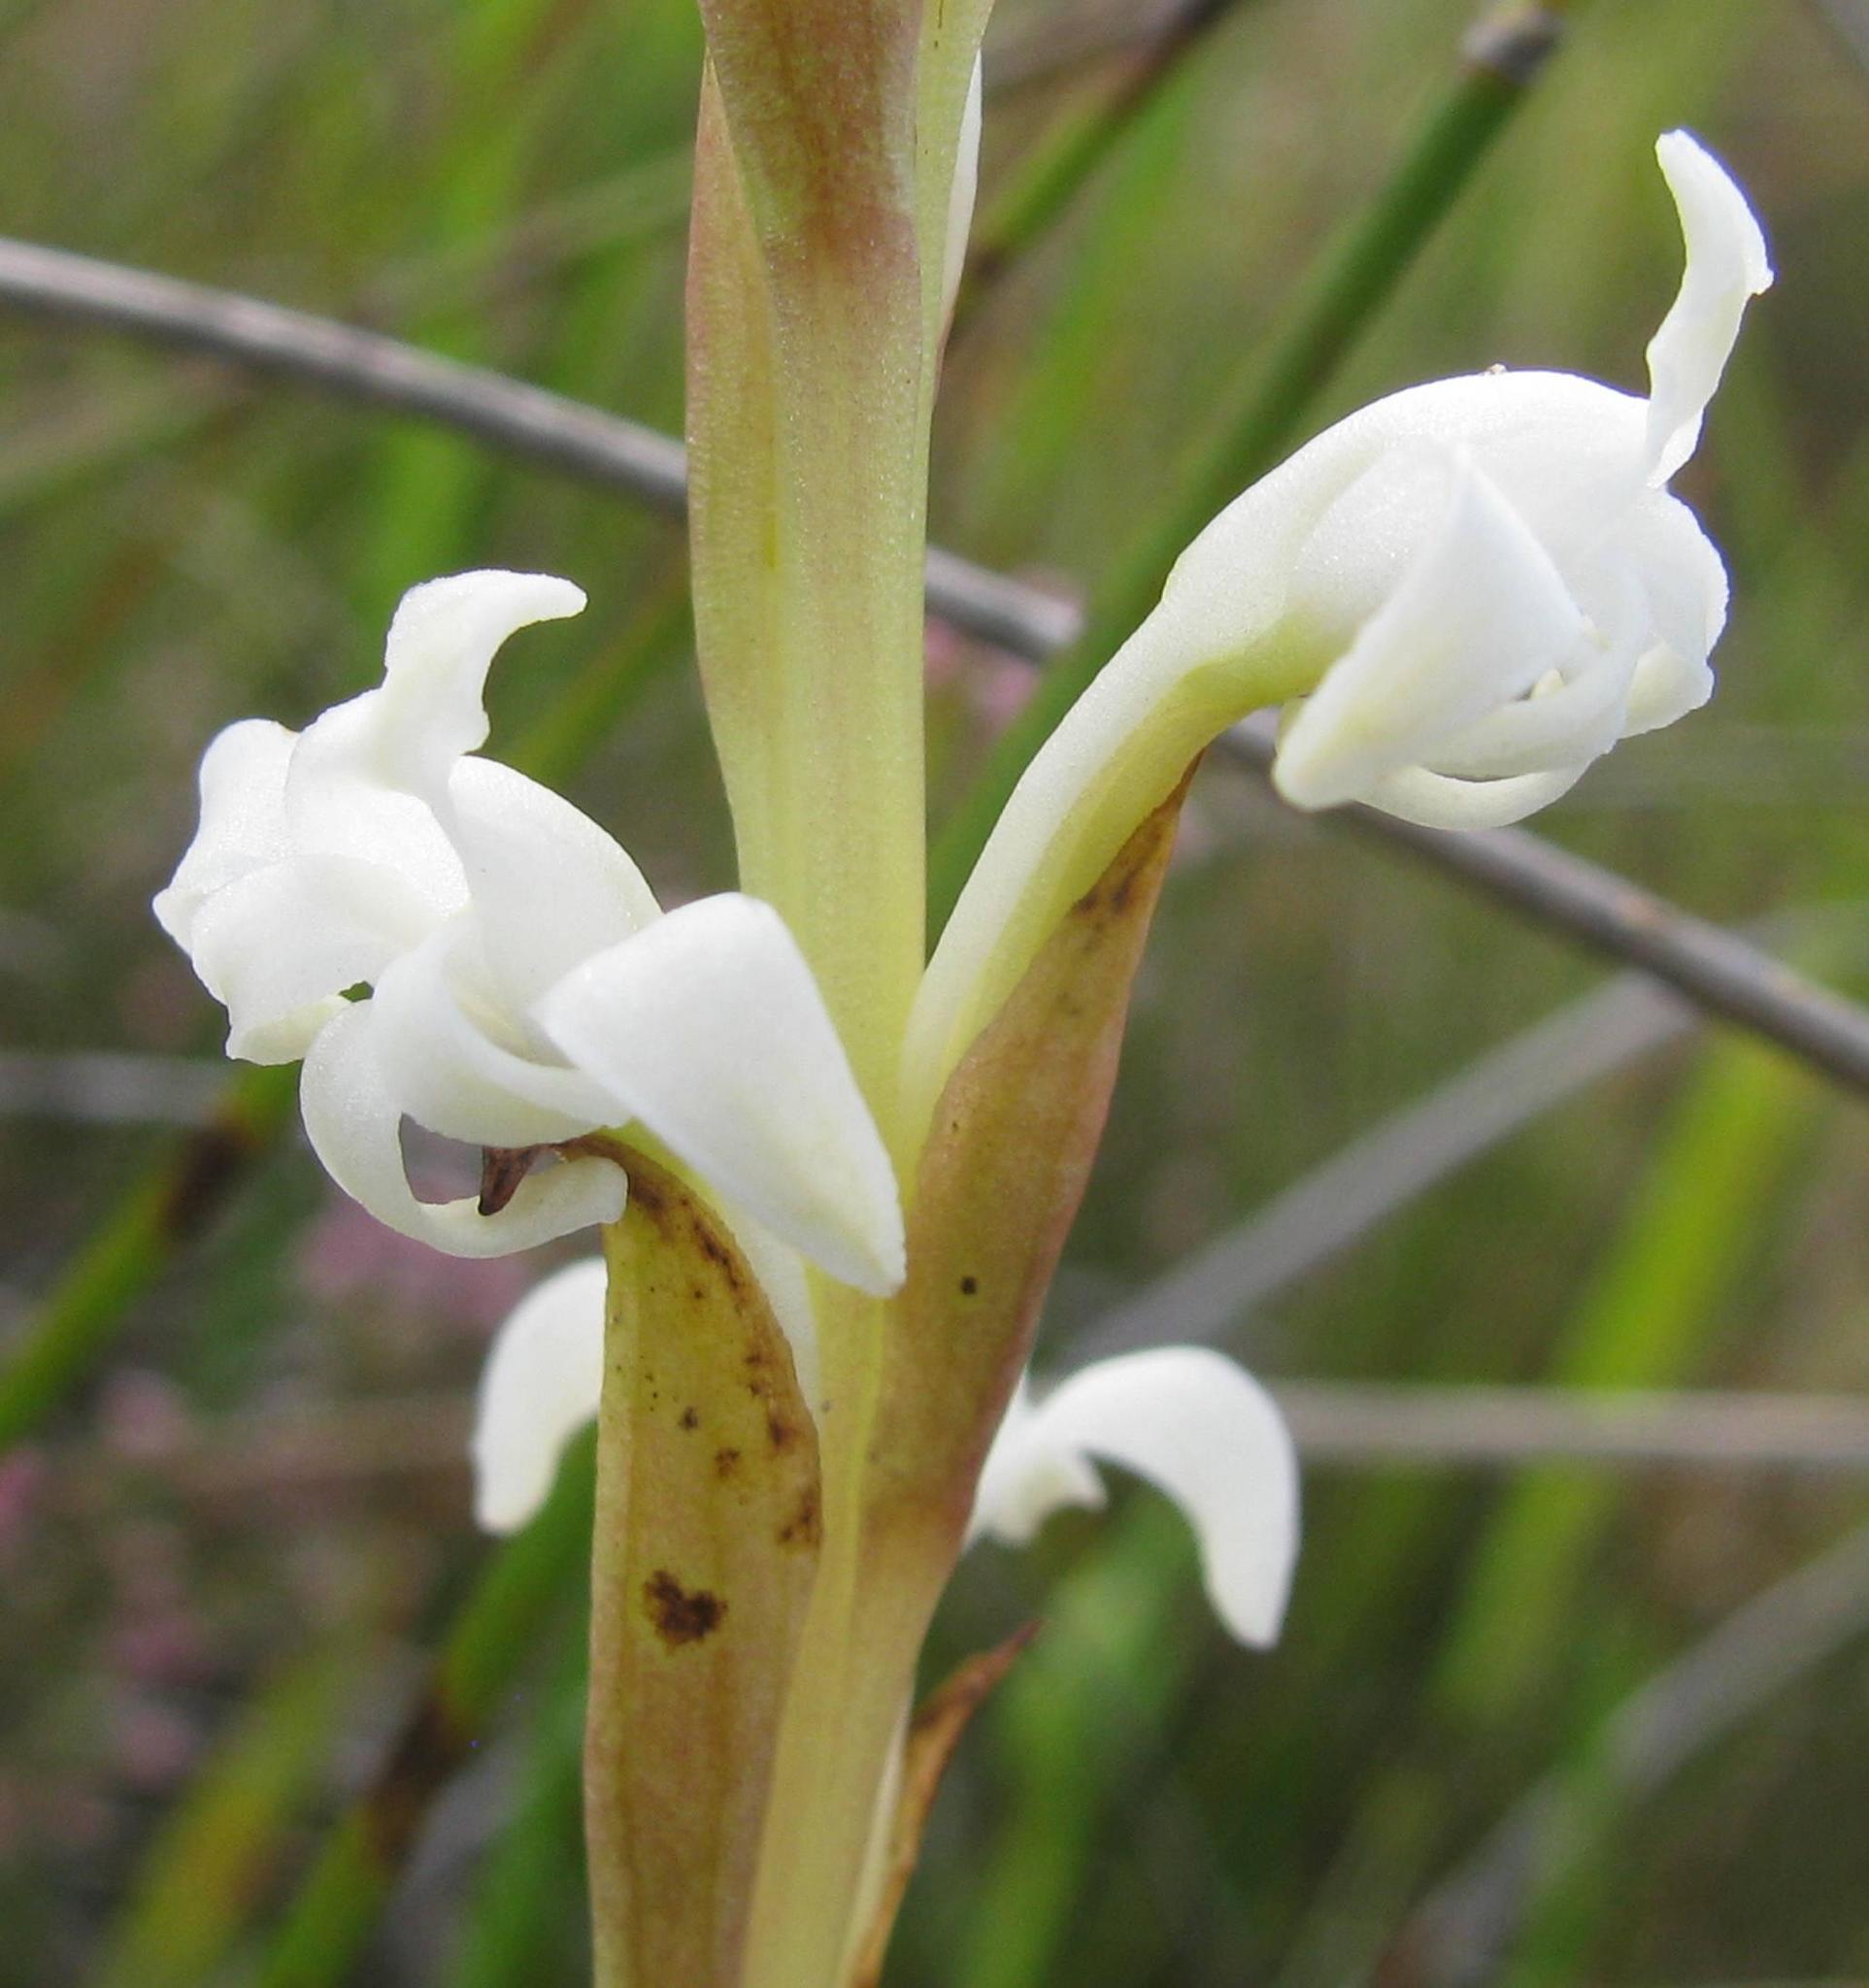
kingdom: Plantae
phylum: Tracheophyta
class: Liliopsida
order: Asparagales
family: Orchidaceae
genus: Satyrium
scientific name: Satyrium stenopetalum
